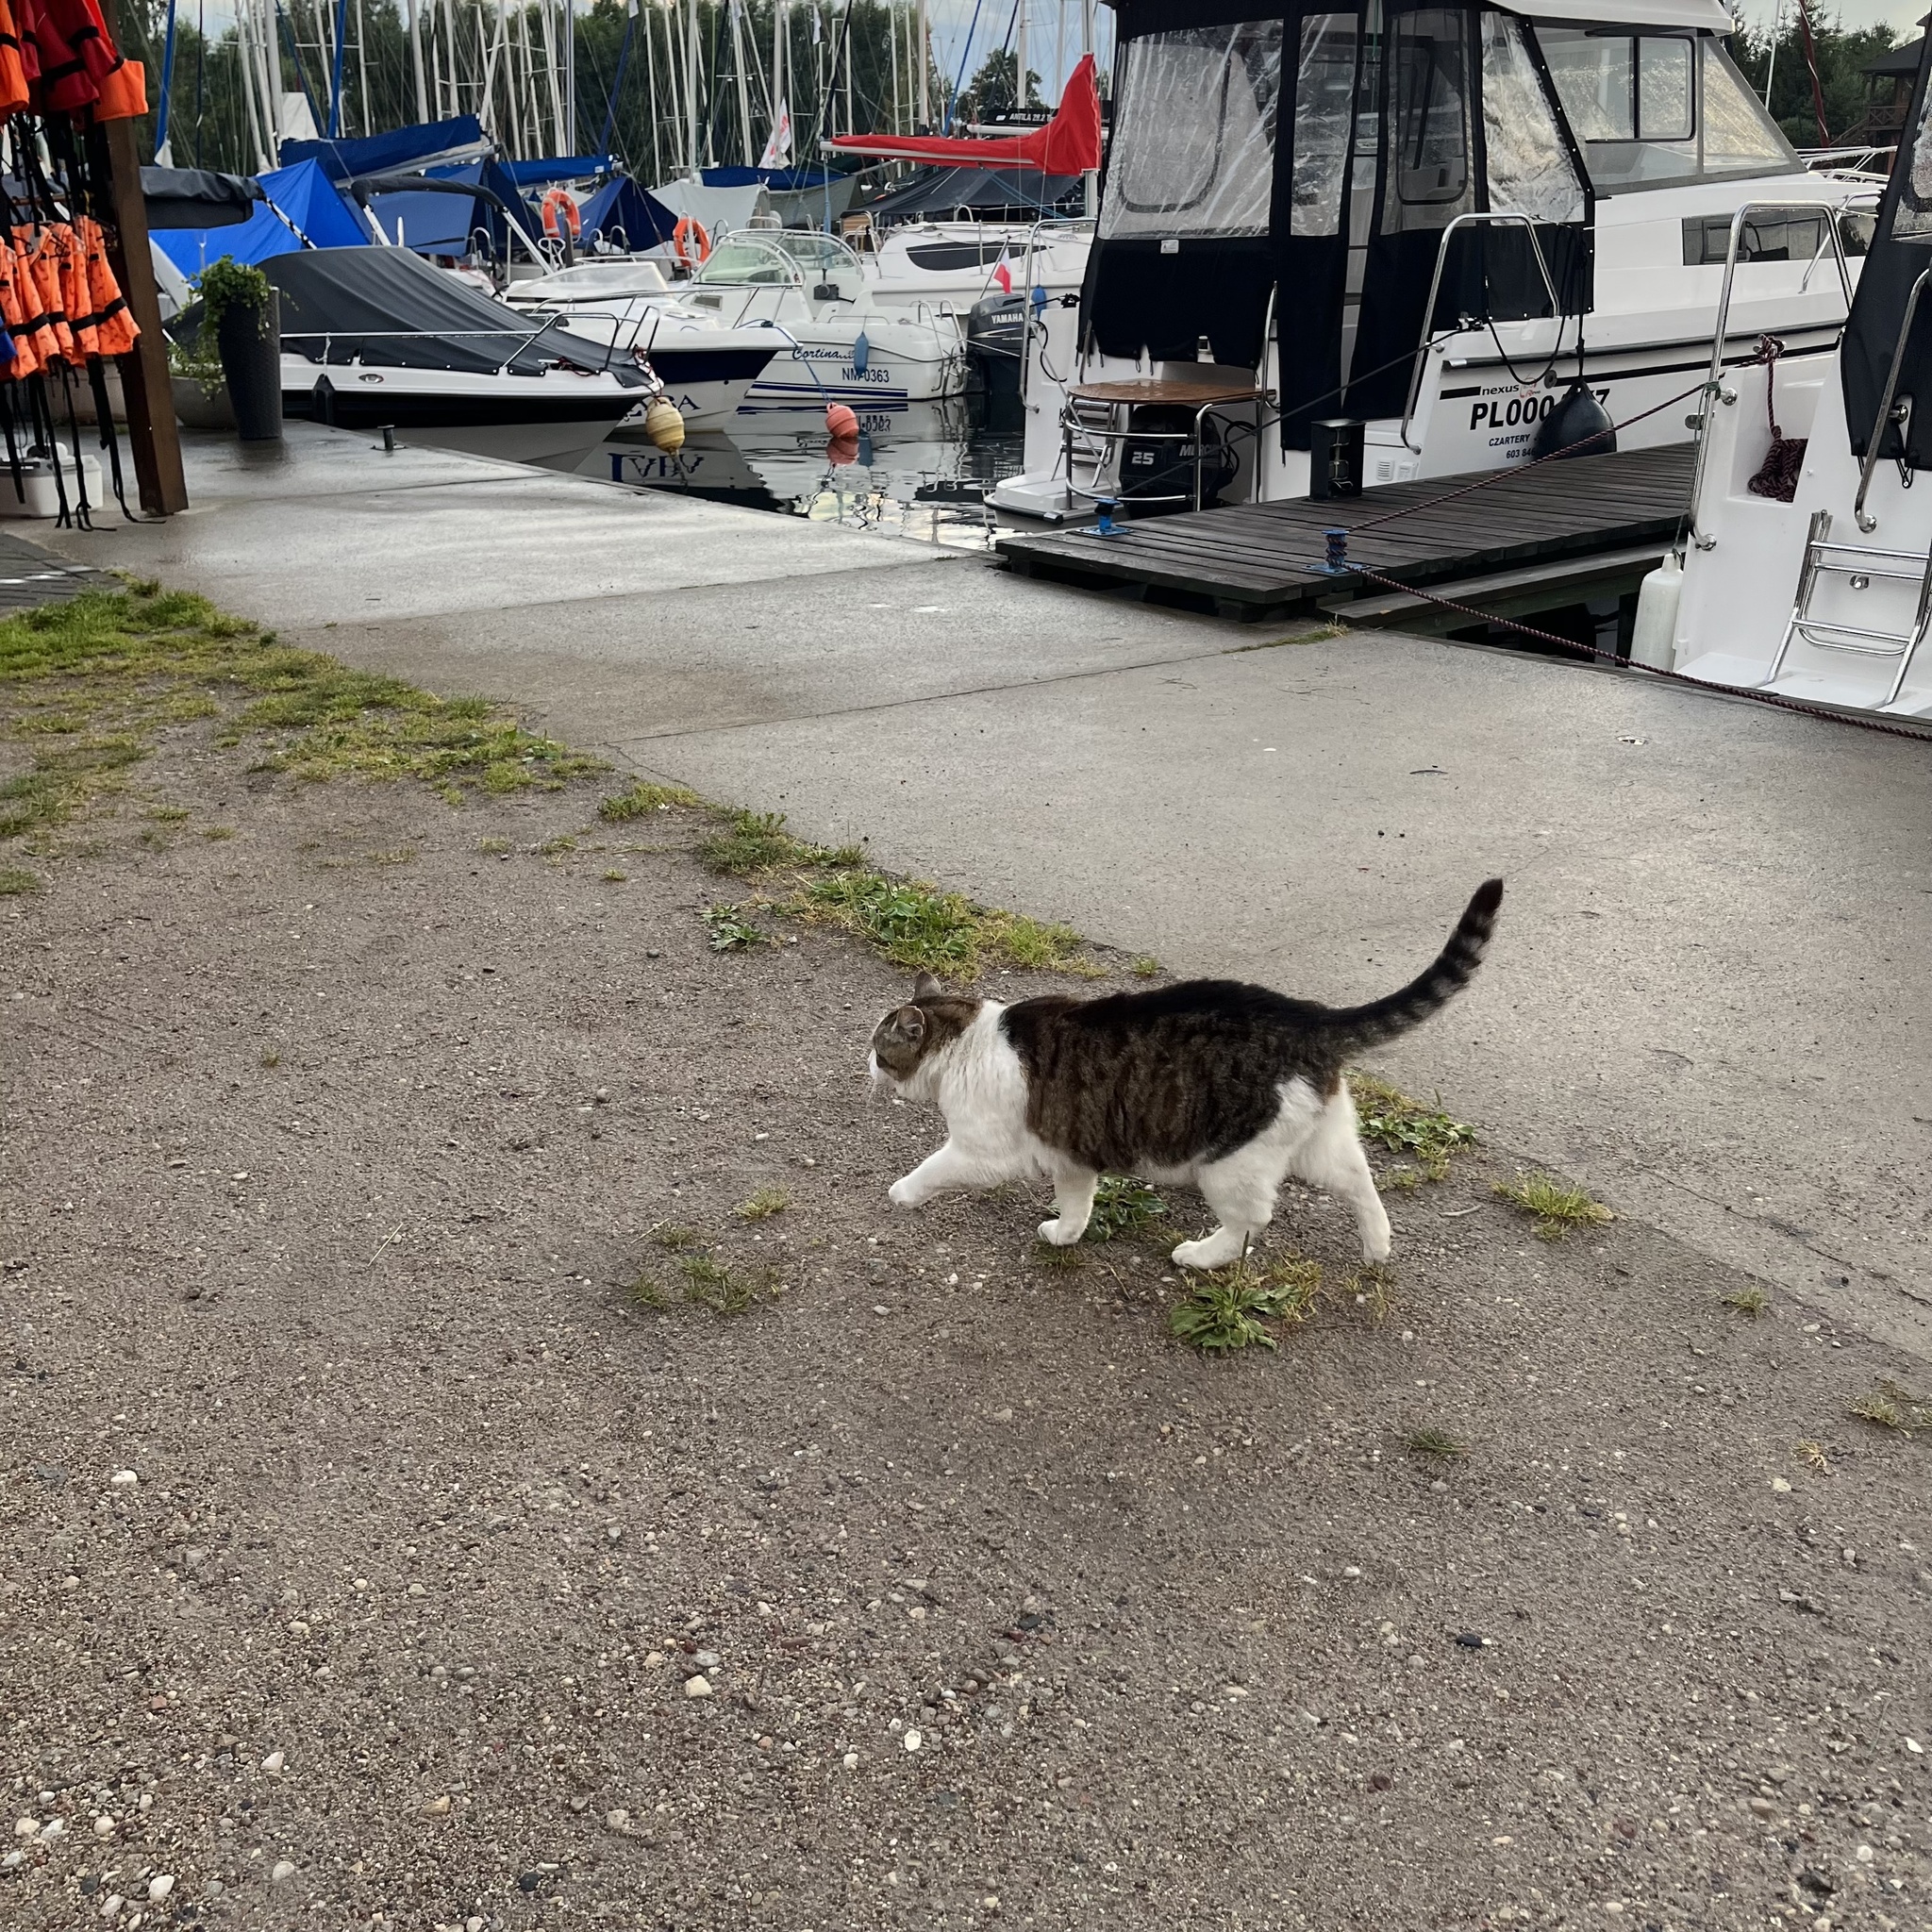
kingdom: Animalia
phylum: Chordata
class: Mammalia
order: Carnivora
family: Felidae
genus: Felis
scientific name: Felis catus
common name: Domestic cat
